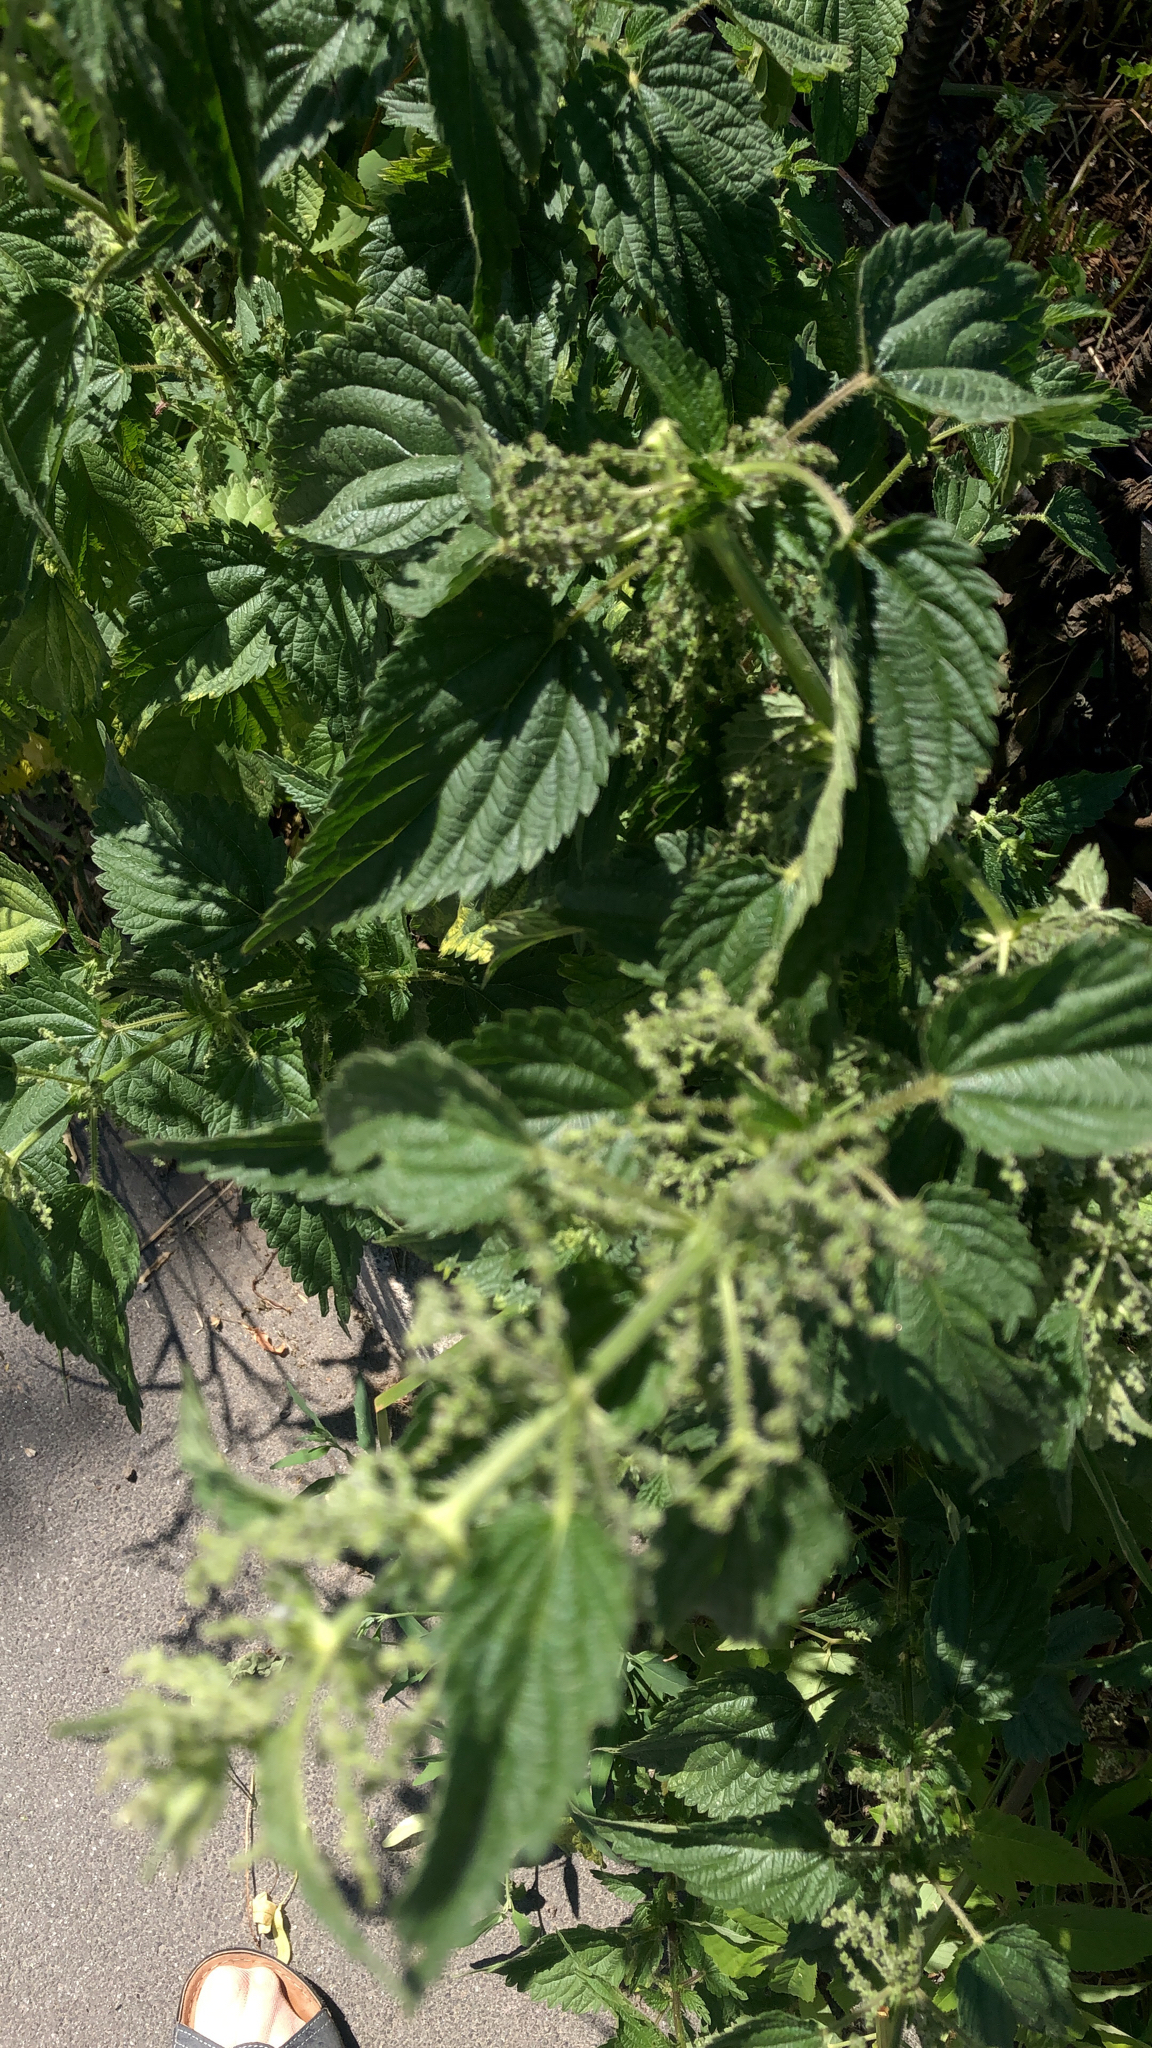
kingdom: Plantae
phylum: Tracheophyta
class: Magnoliopsida
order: Rosales
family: Urticaceae
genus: Urtica
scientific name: Urtica dioica
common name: Common nettle
